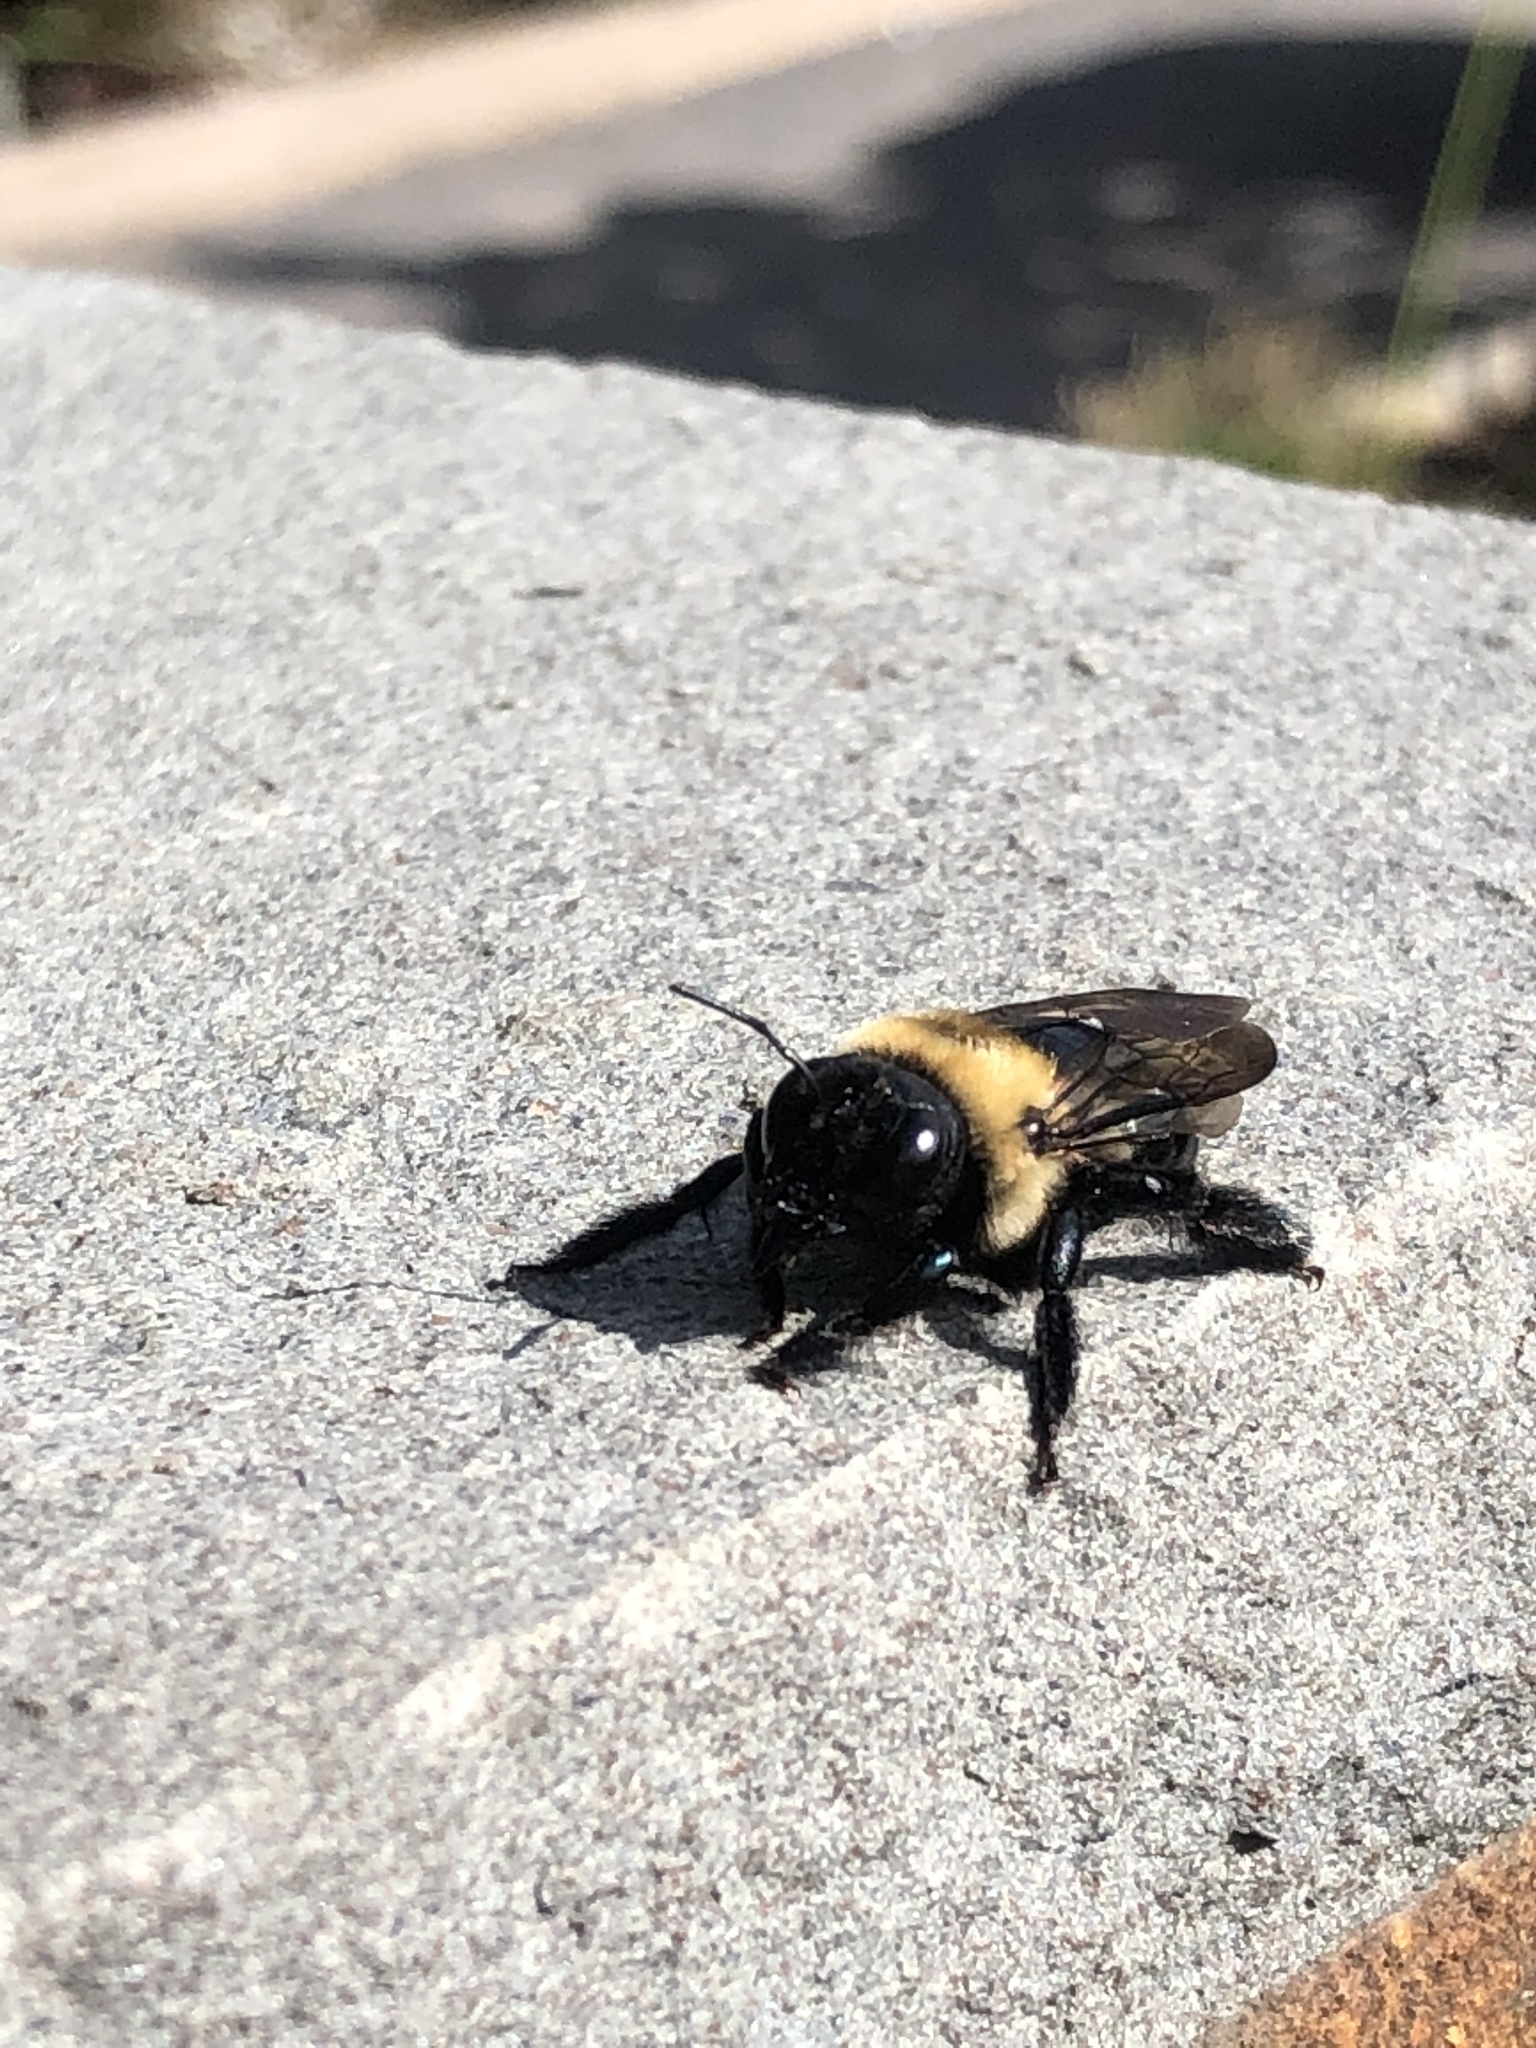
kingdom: Animalia
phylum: Arthropoda
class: Insecta
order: Hymenoptera
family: Apidae
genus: Xylocopa
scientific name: Xylocopa virginica
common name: Carpenter bee
